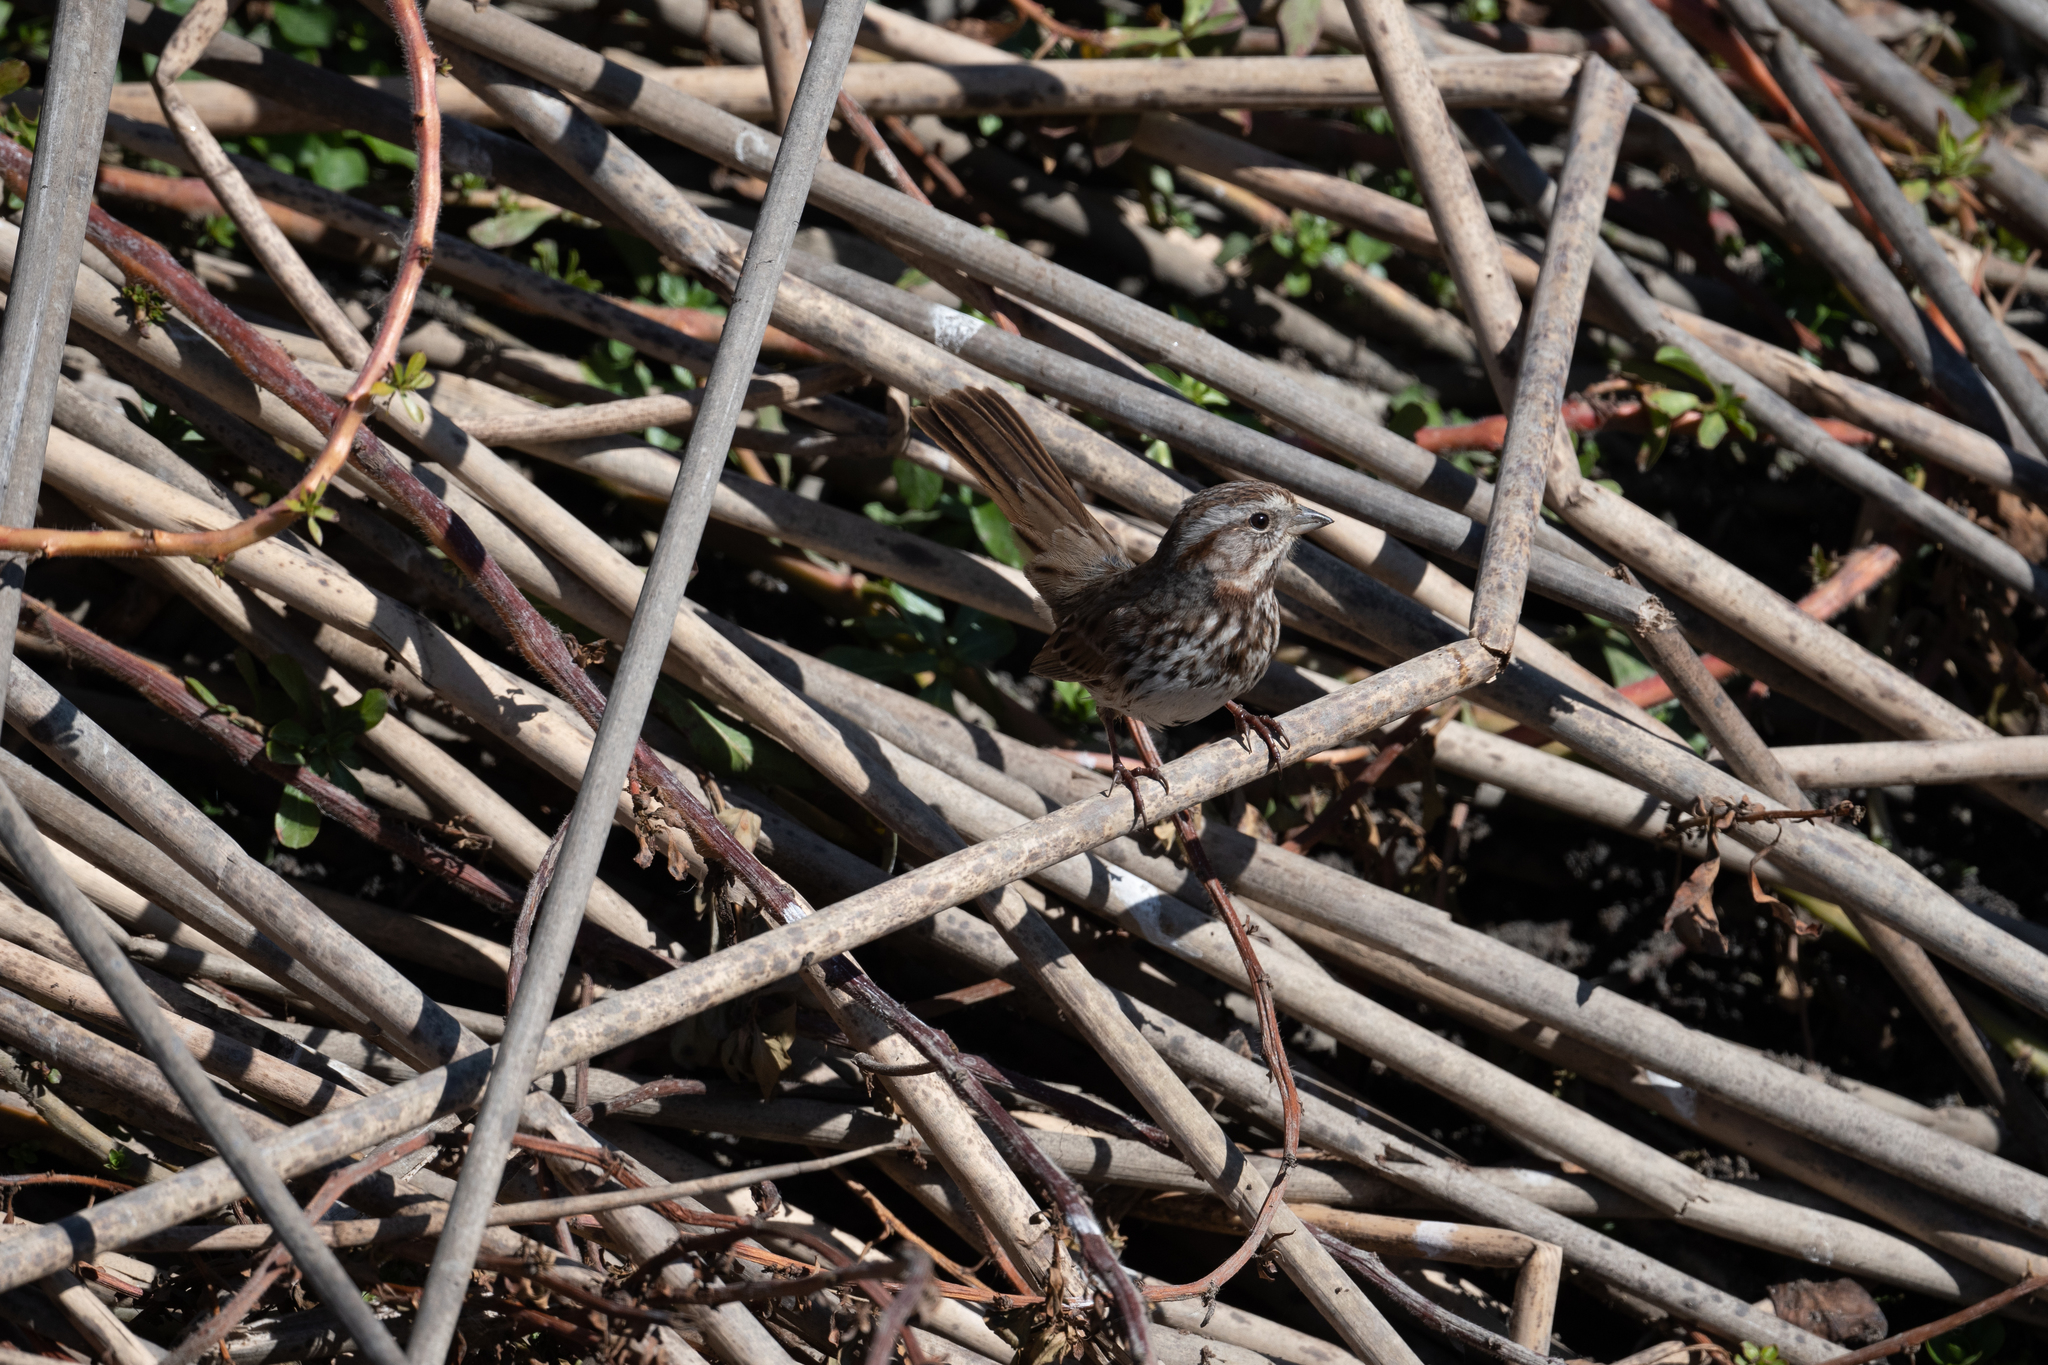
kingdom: Animalia
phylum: Chordata
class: Aves
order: Passeriformes
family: Passerellidae
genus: Melospiza
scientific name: Melospiza melodia
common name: Song sparrow
